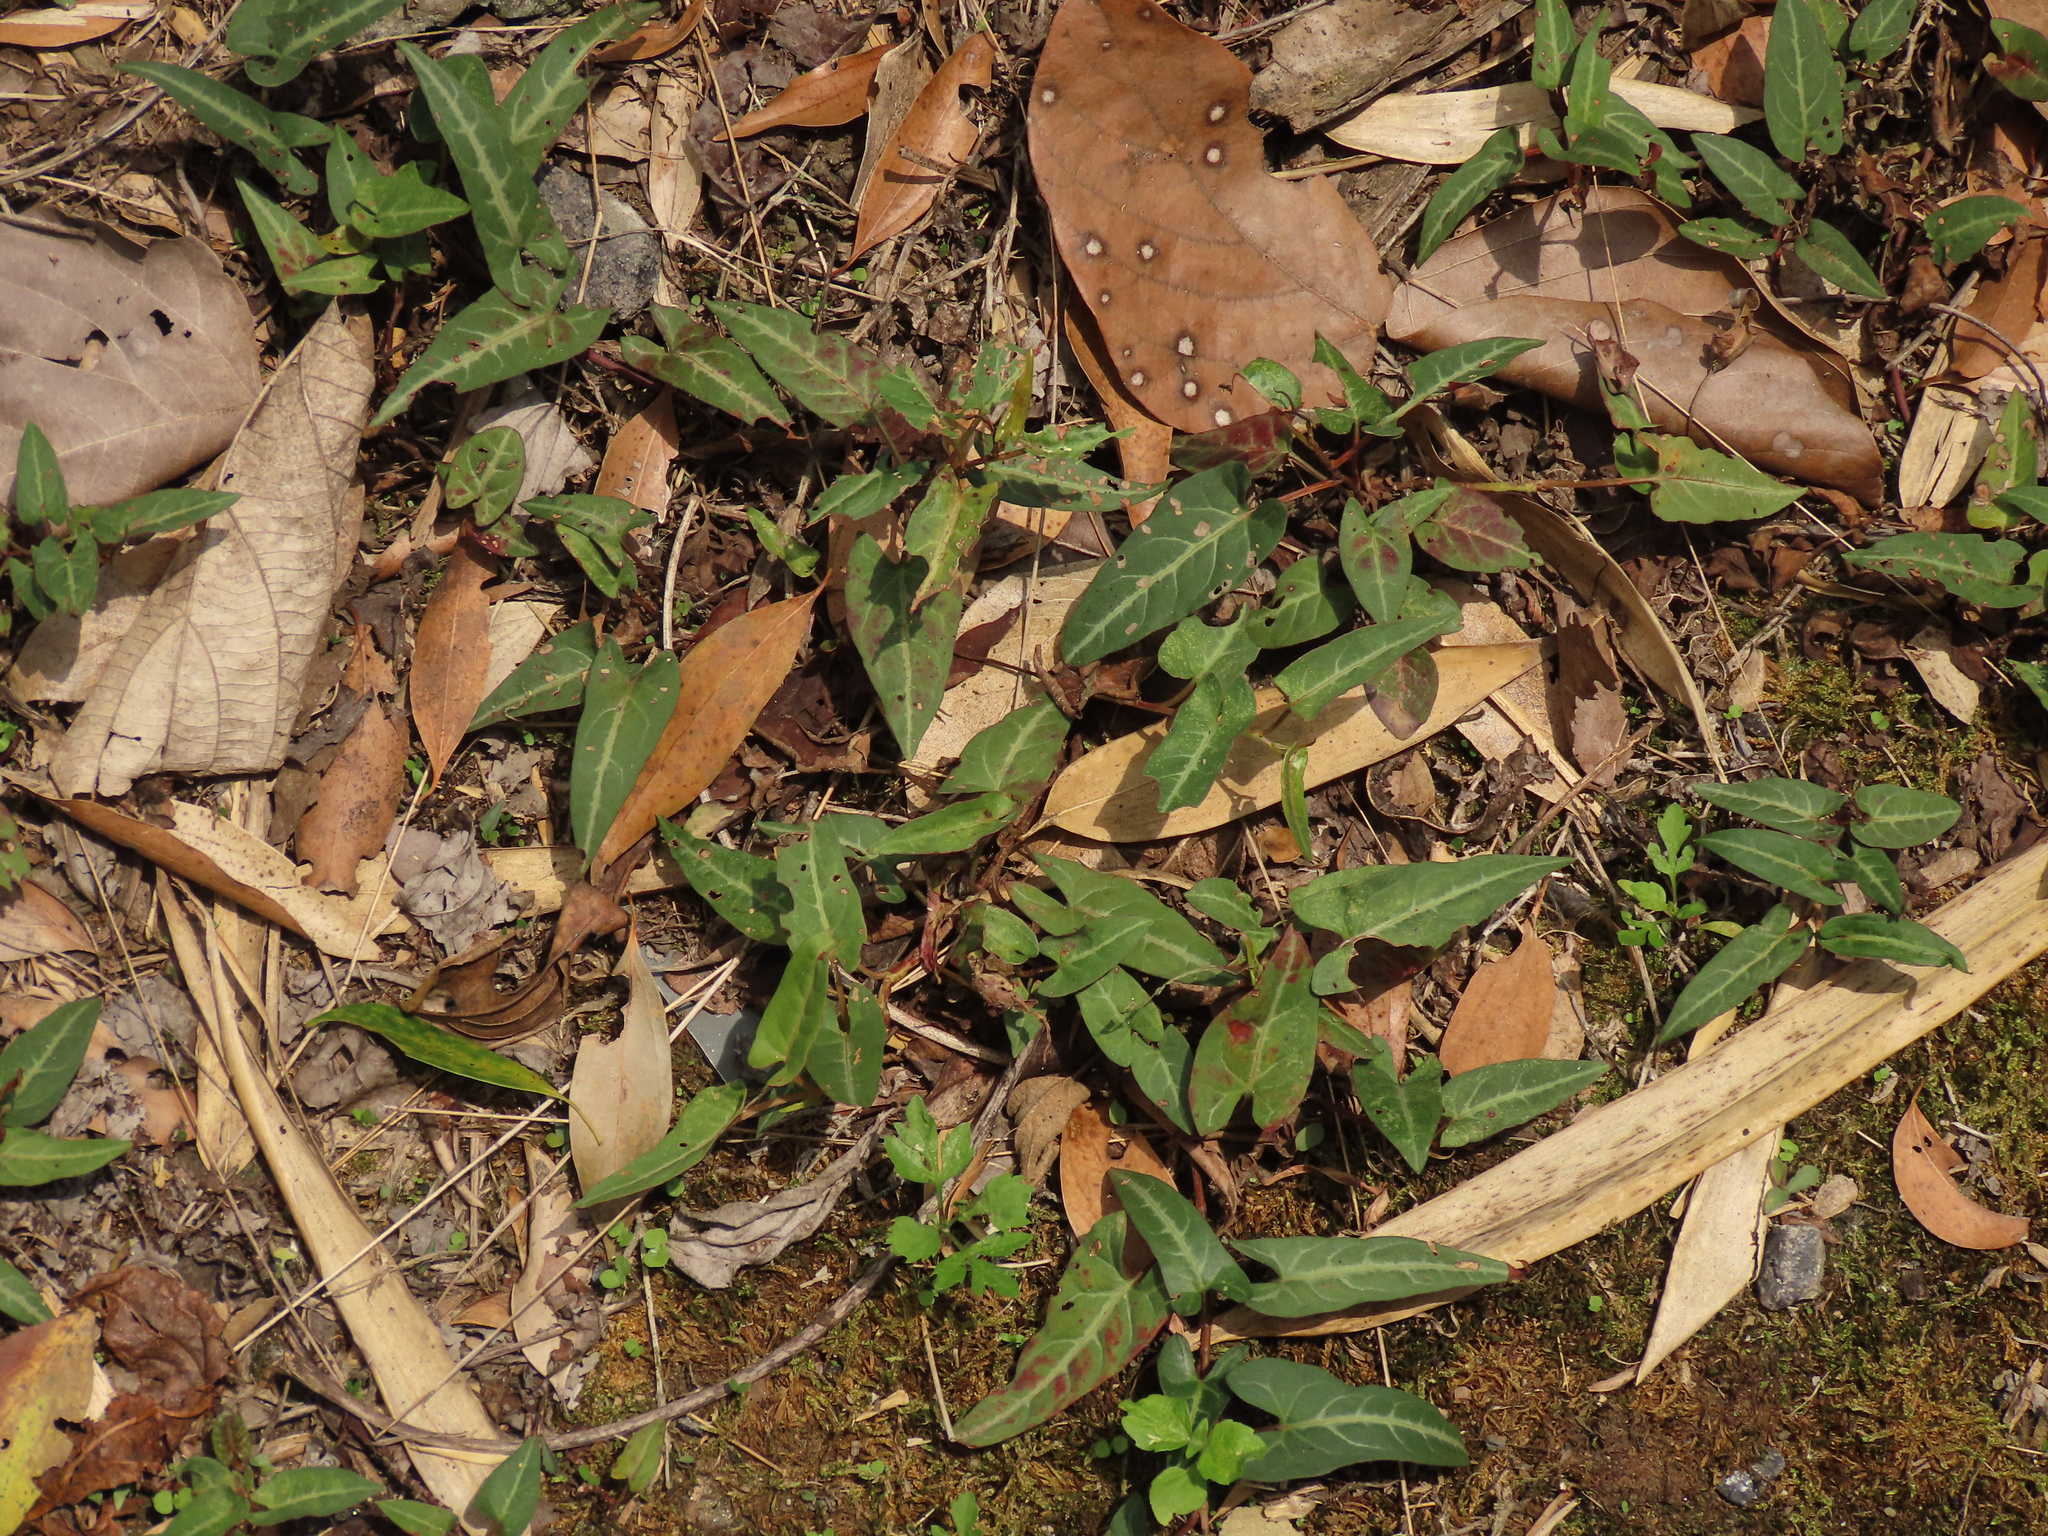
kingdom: Plantae
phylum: Tracheophyta
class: Magnoliopsida
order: Caryophyllales
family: Polygonaceae
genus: Reynoutria
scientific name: Reynoutria multiflora
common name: Chinese fleeceflower
